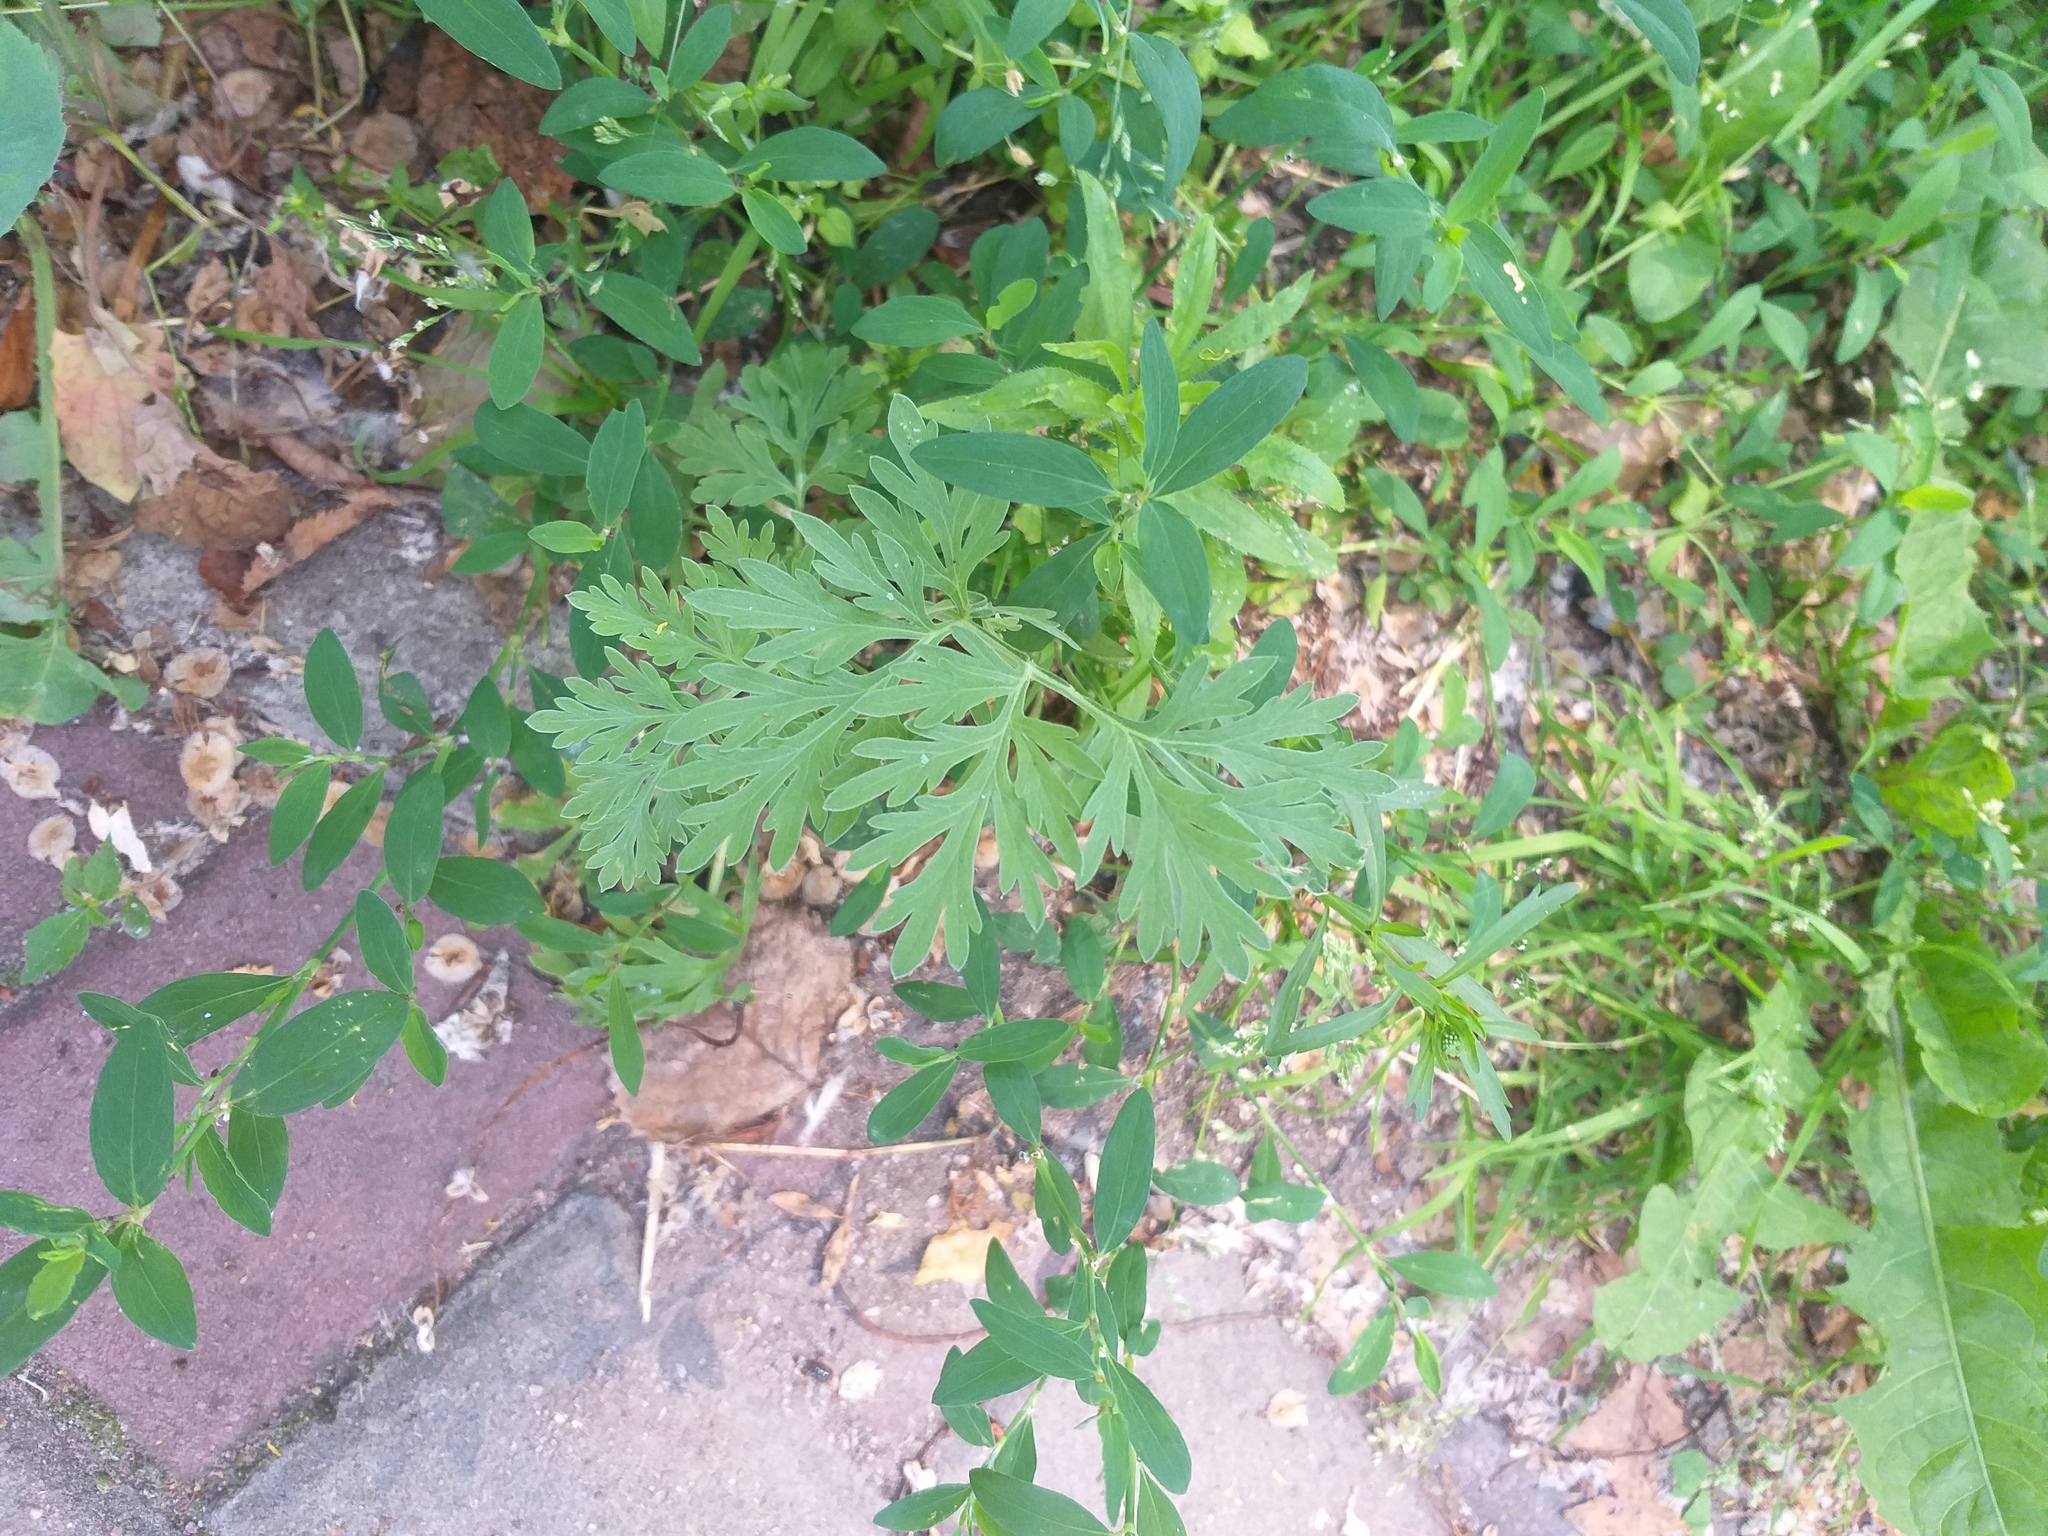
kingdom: Plantae
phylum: Tracheophyta
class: Magnoliopsida
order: Asterales
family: Asteraceae
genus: Artemisia
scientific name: Artemisia absinthium
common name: Wormwood
